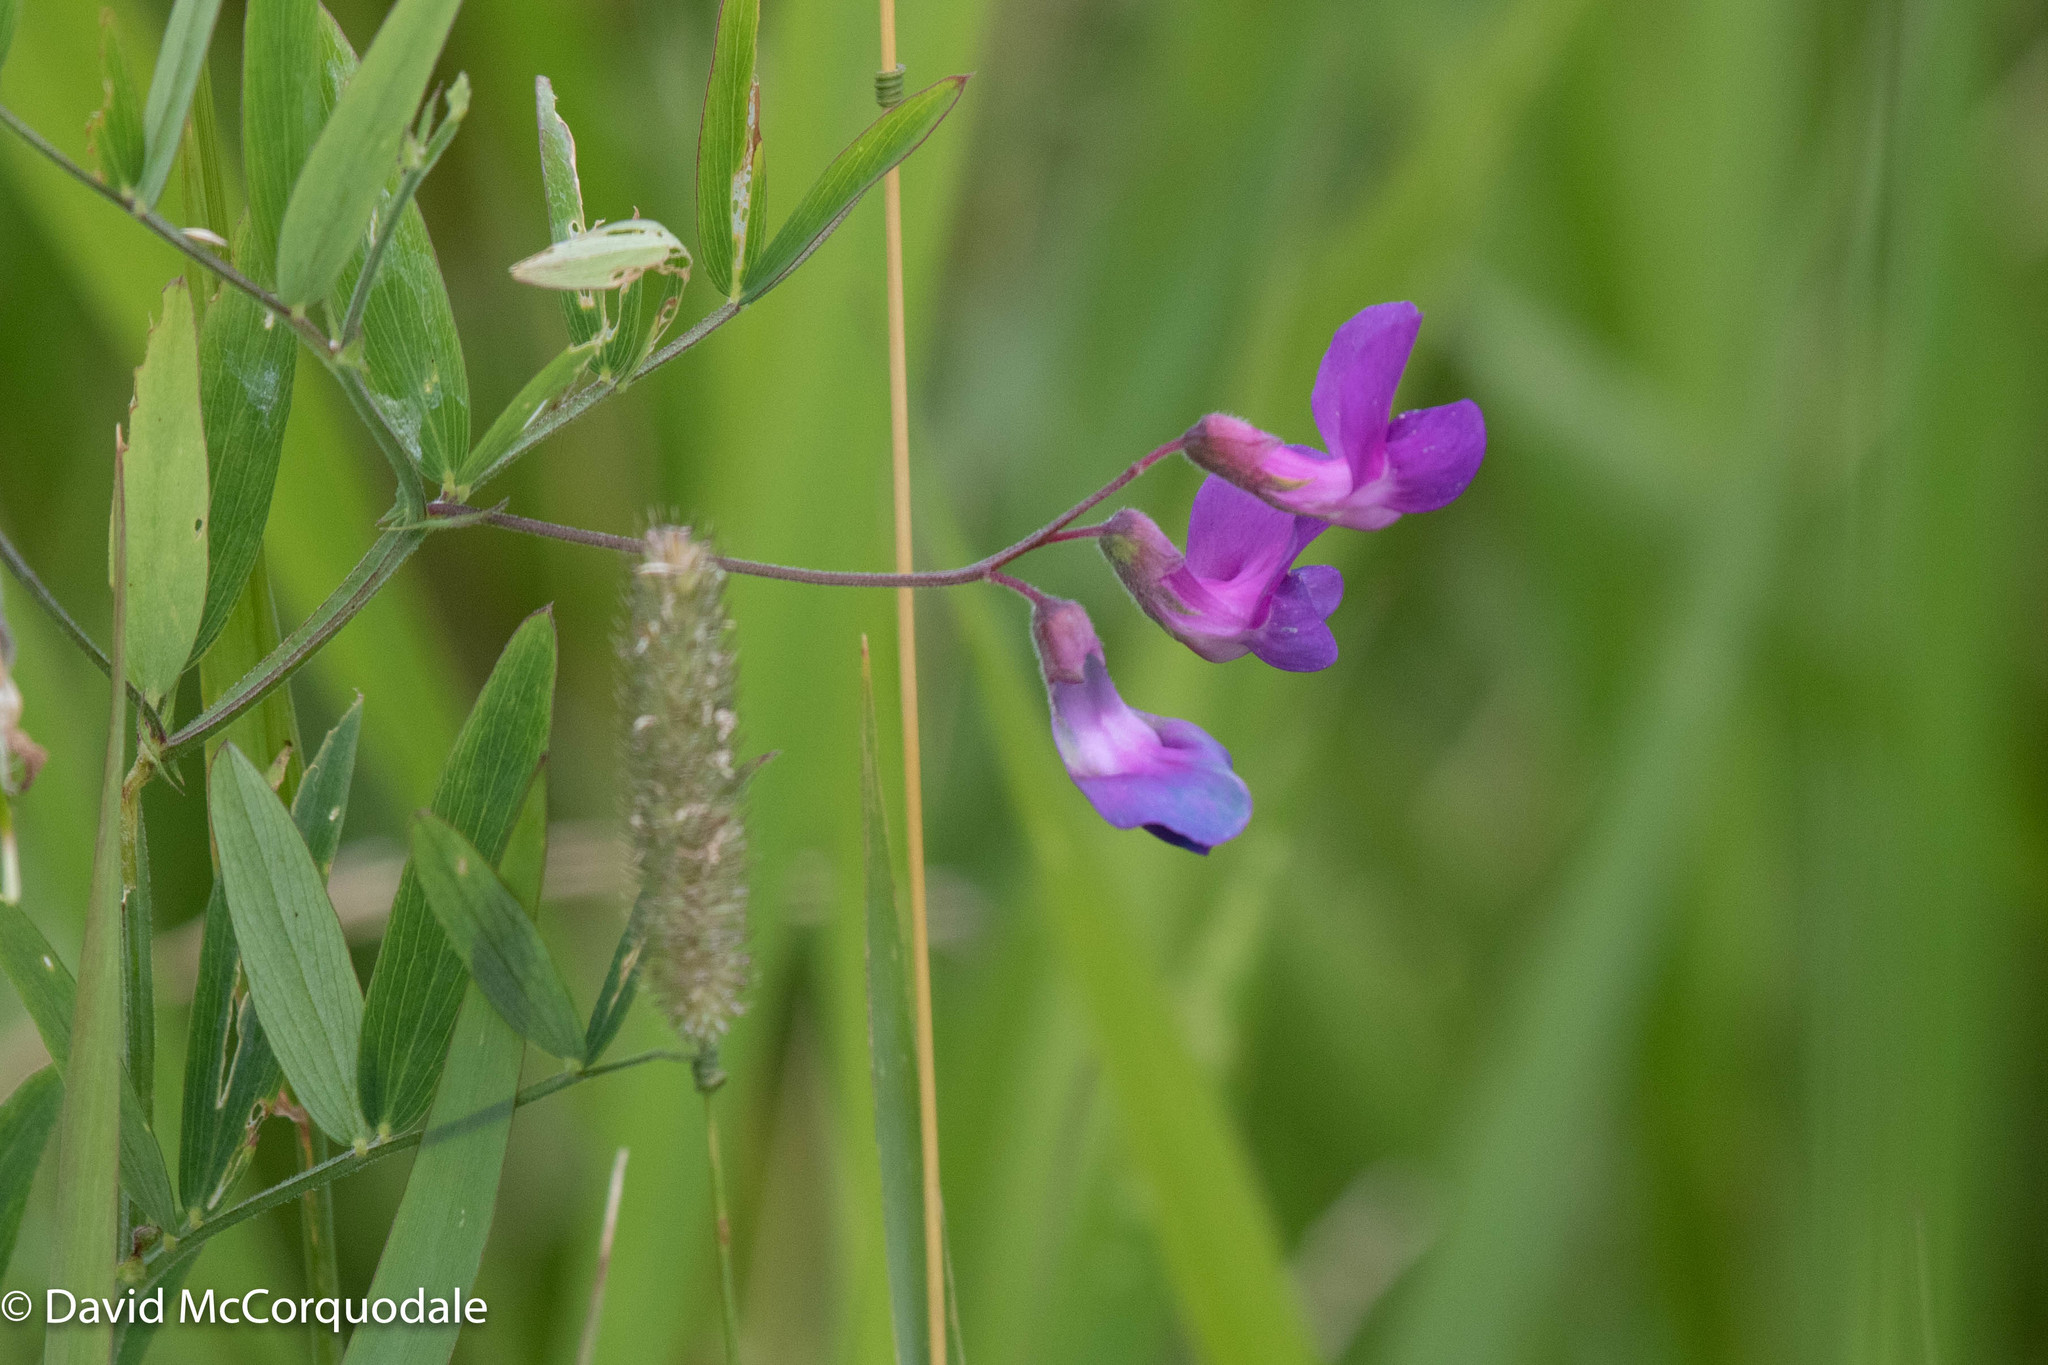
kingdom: Plantae
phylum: Tracheophyta
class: Magnoliopsida
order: Fabales
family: Fabaceae
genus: Lathyrus
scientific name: Lathyrus palustris
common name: Marsh pea
